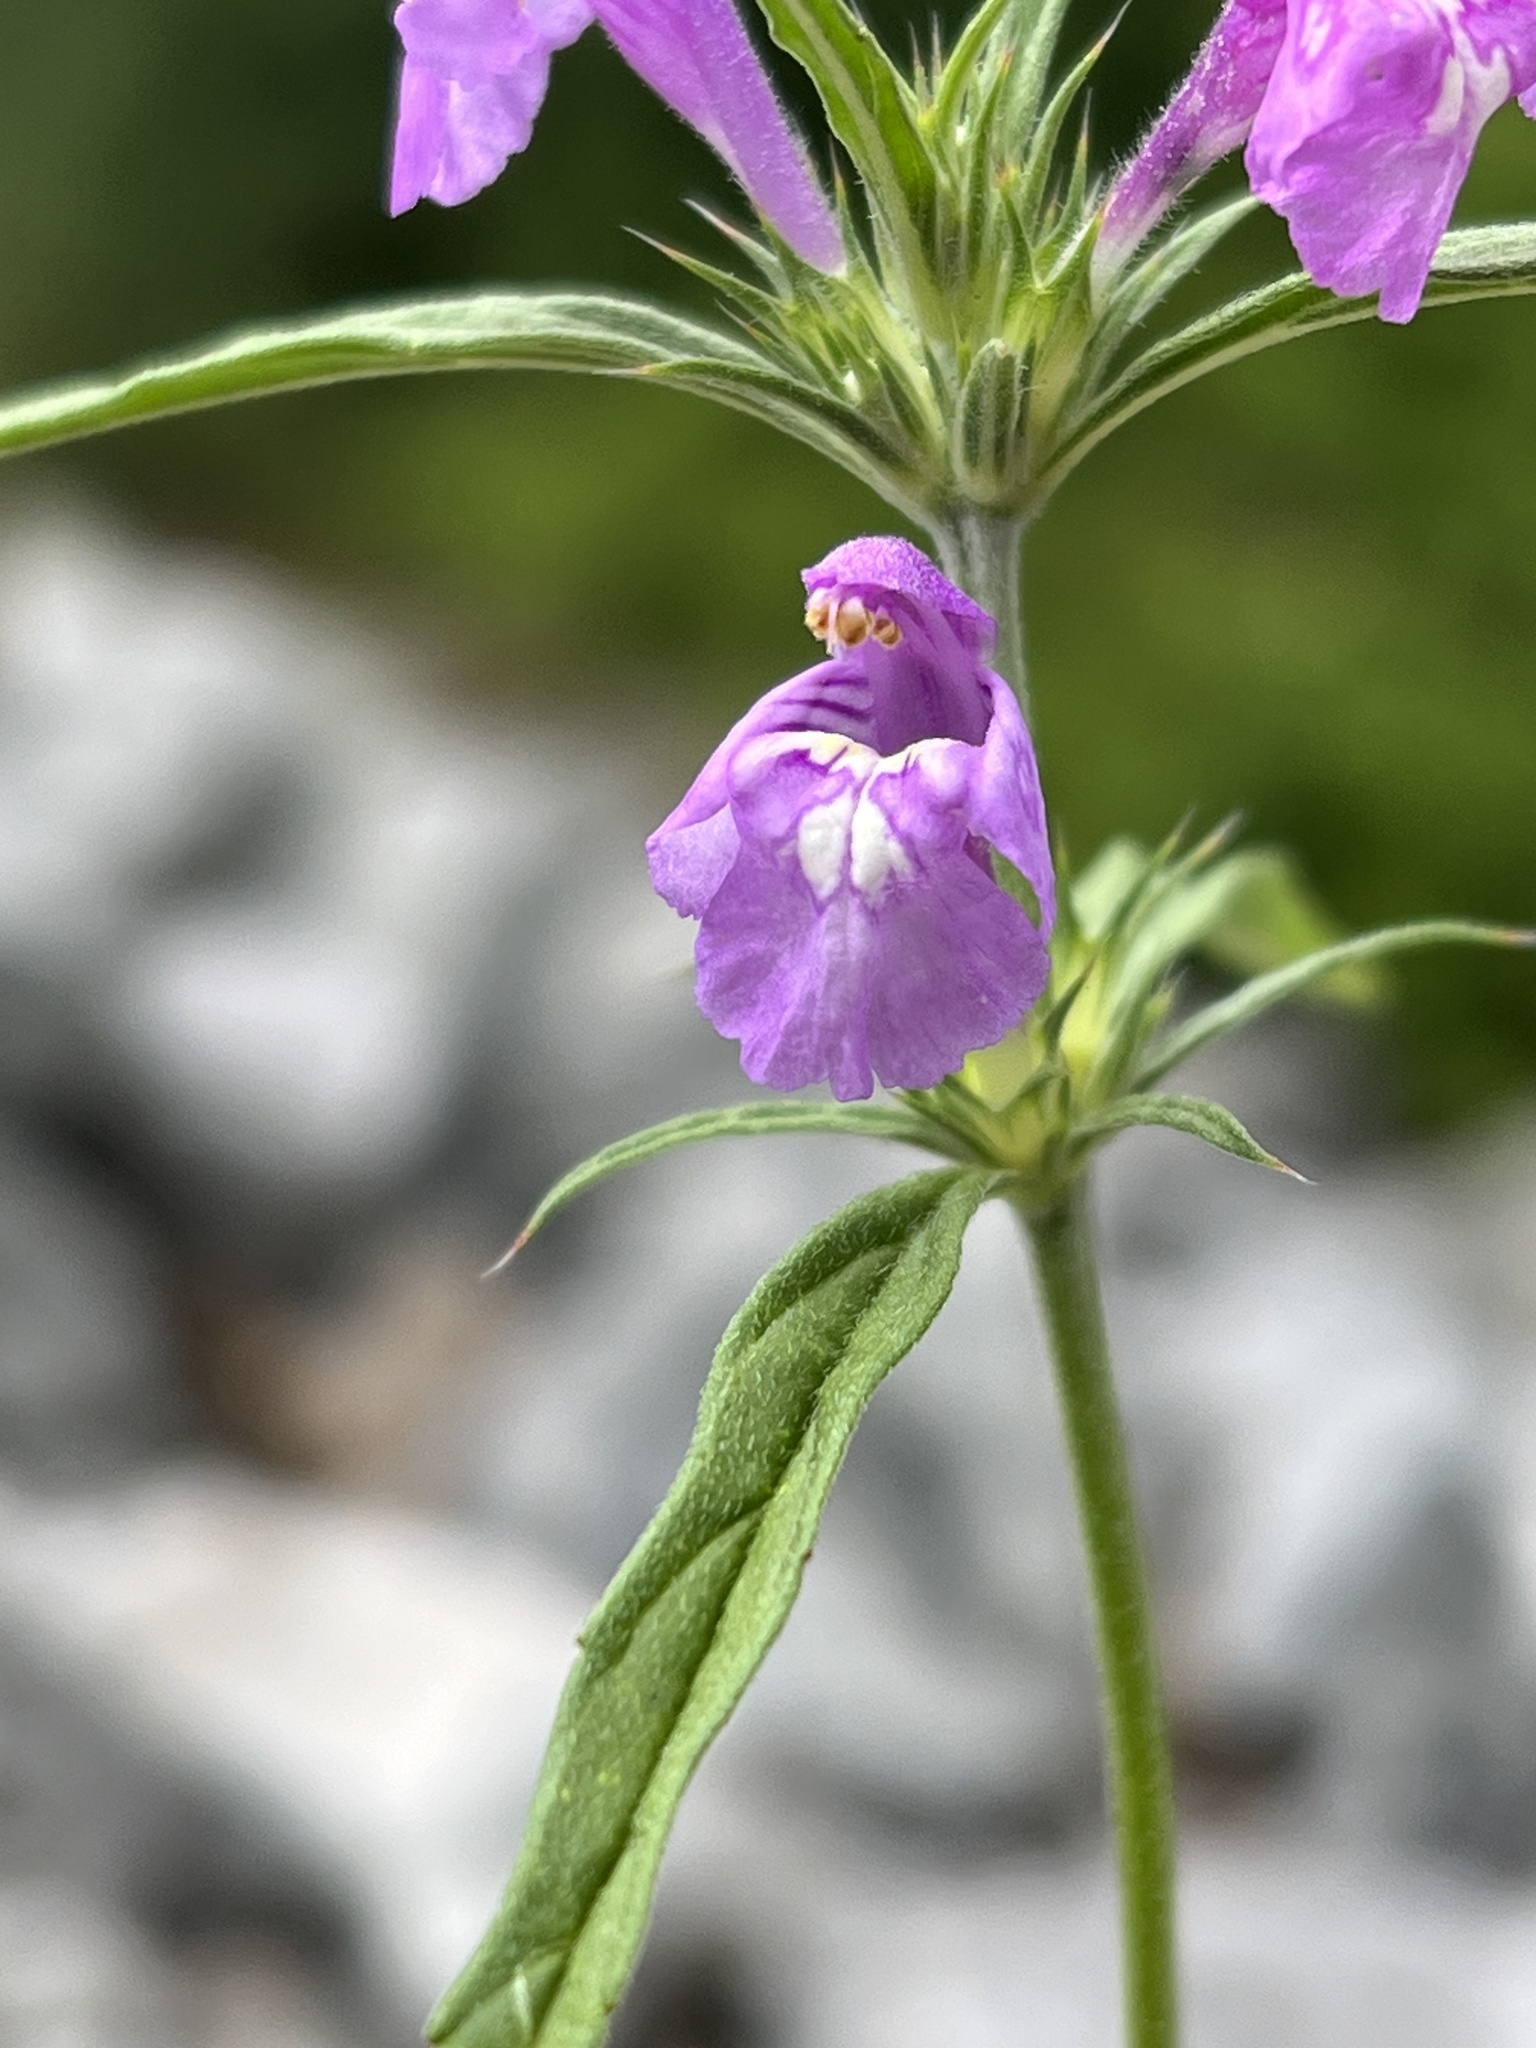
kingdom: Plantae
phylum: Tracheophyta
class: Magnoliopsida
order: Lamiales
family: Lamiaceae
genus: Galeopsis
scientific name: Galeopsis angustifolia
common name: Red hemp-nettle
